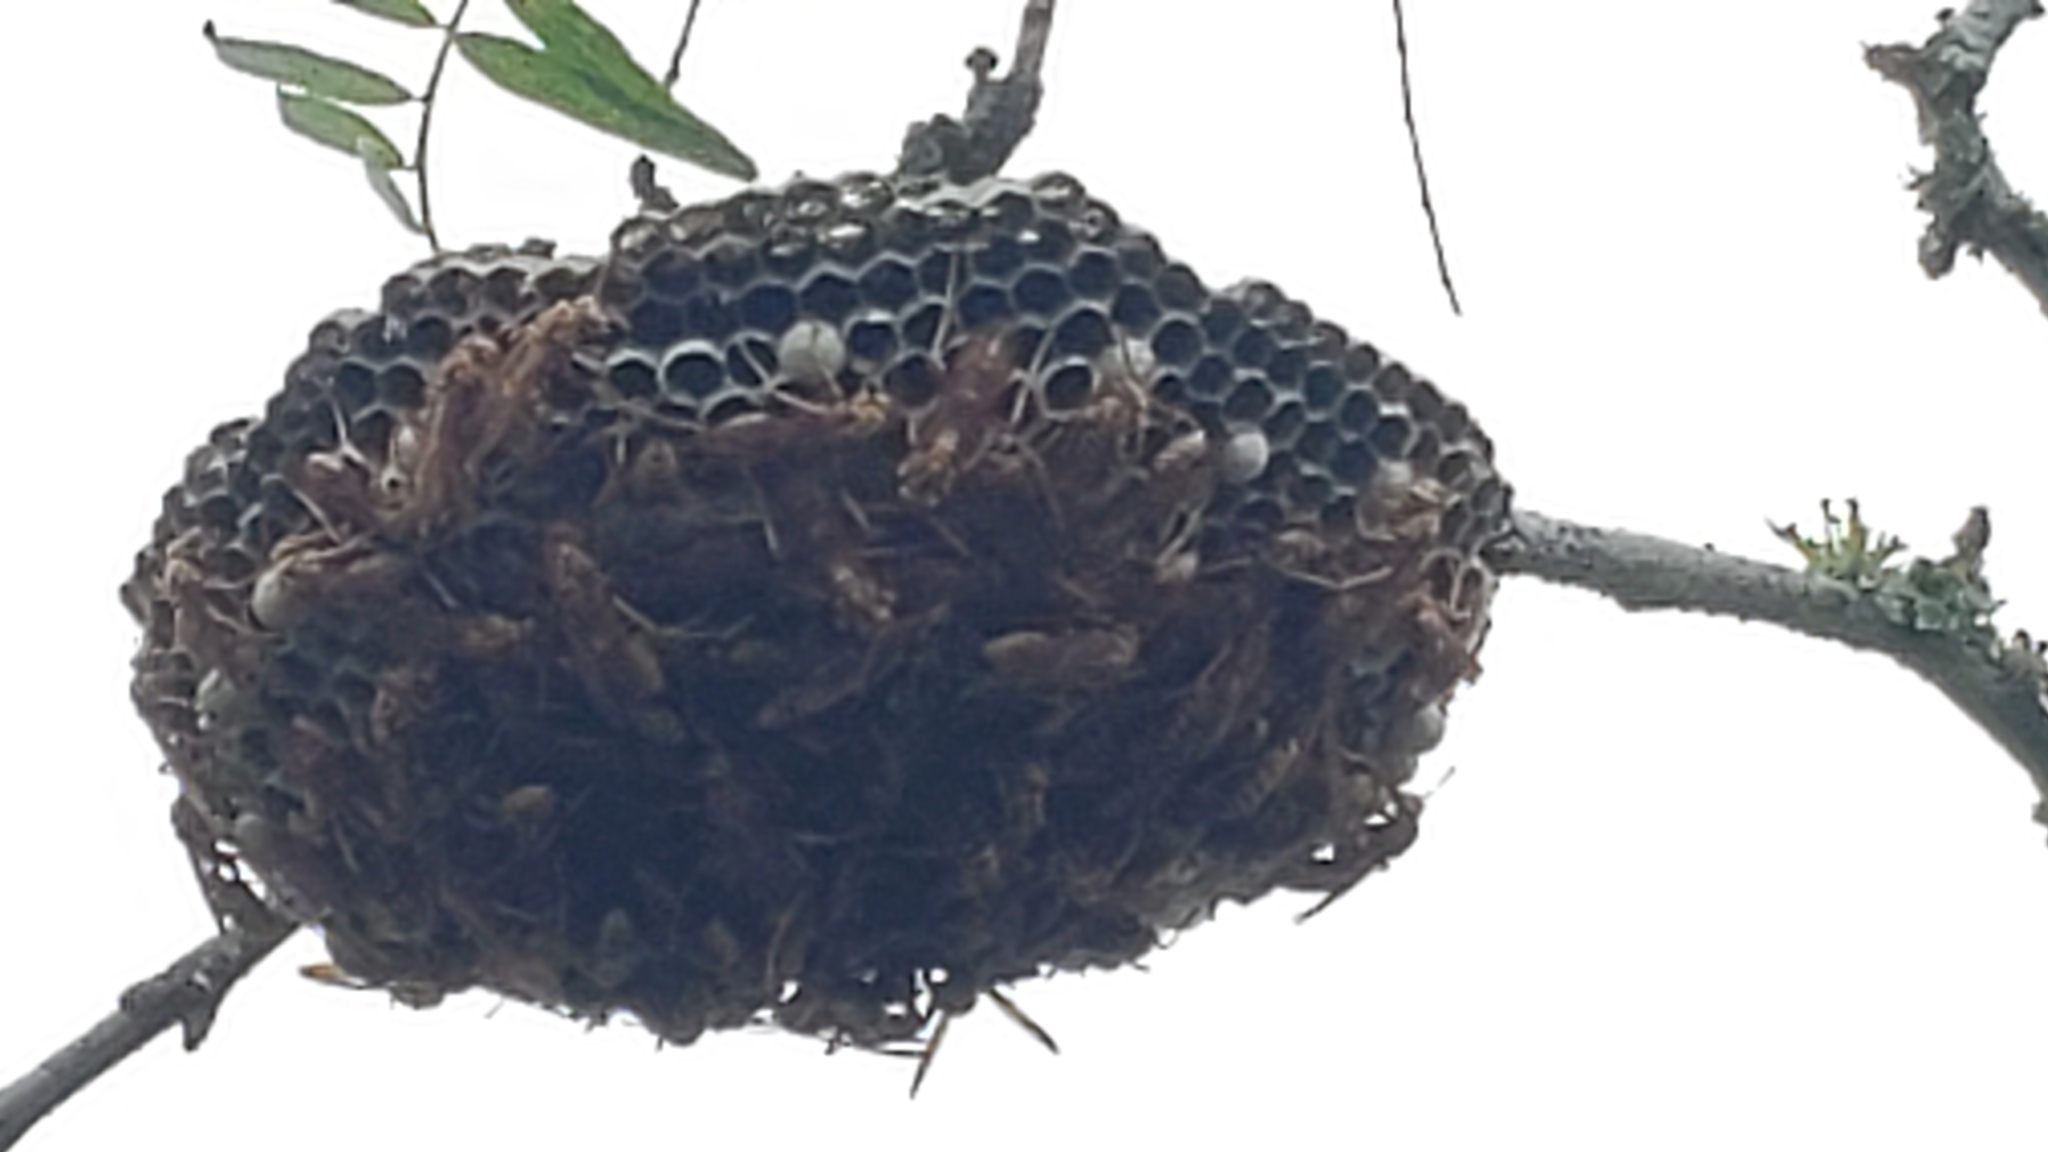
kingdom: Animalia
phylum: Arthropoda
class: Insecta
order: Hymenoptera
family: Eumenidae
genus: Polistes
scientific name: Polistes apachus
